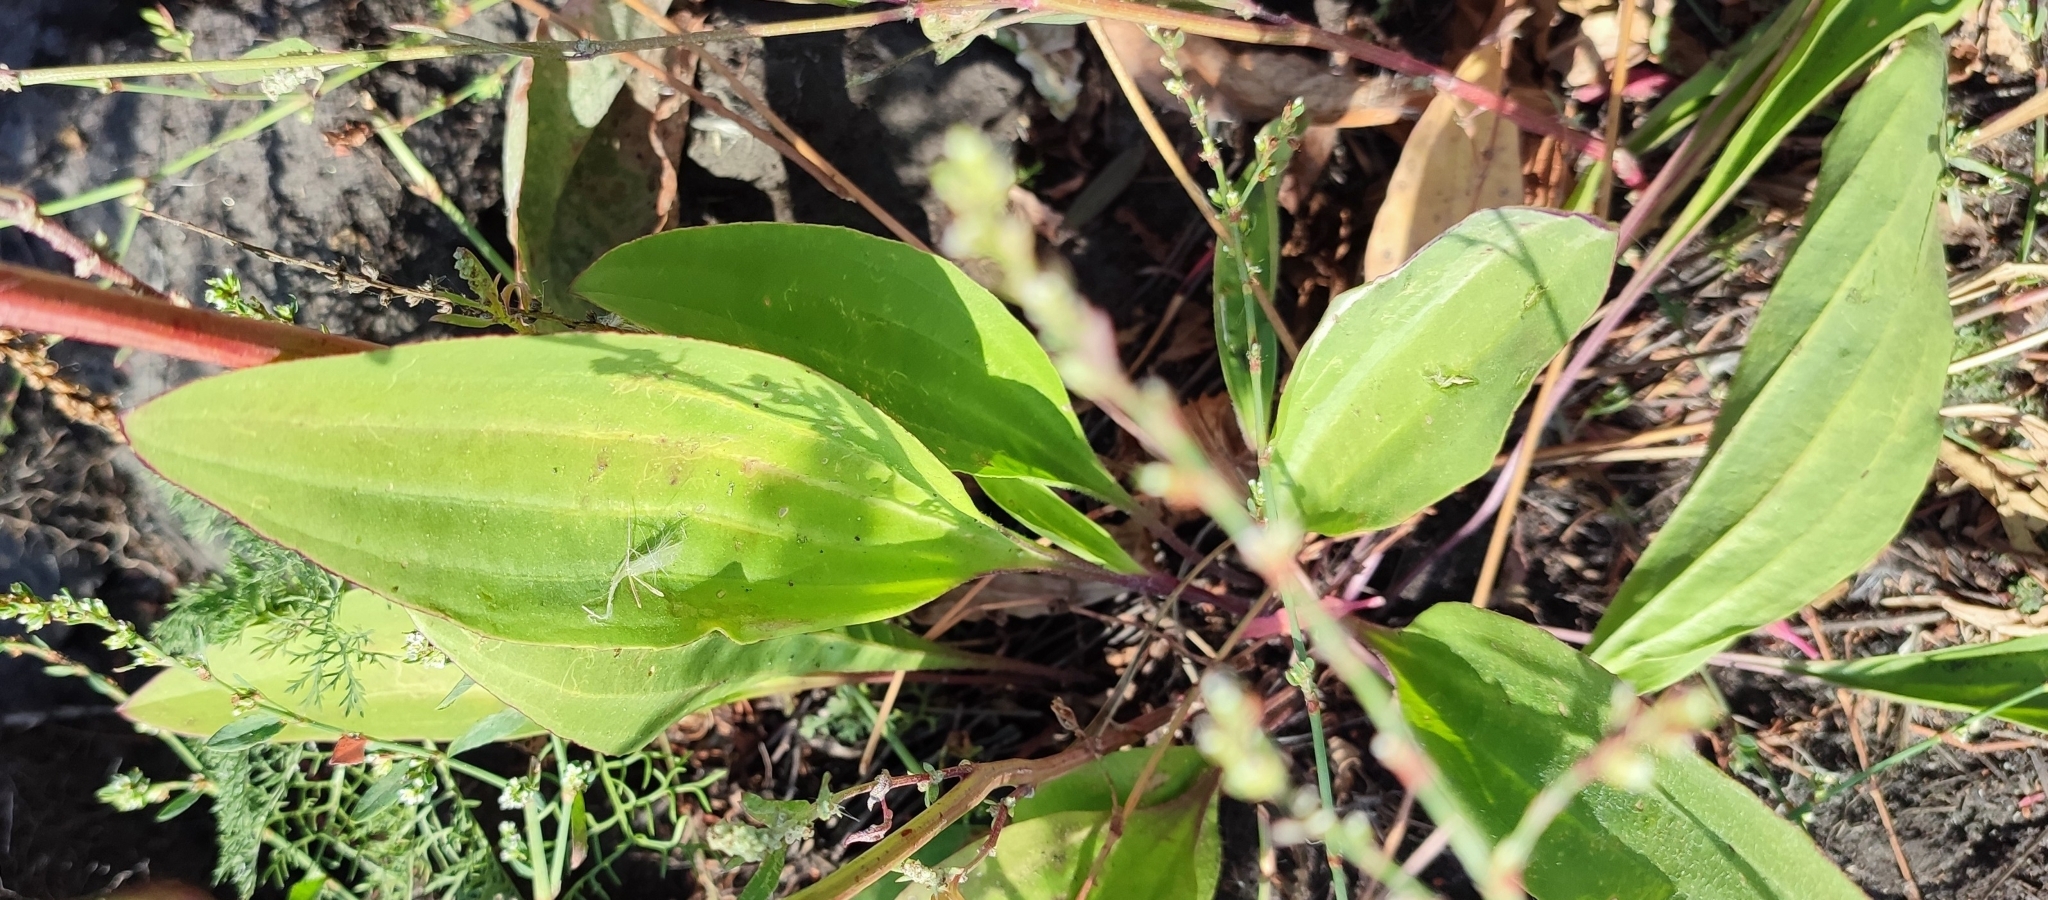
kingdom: Plantae
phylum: Tracheophyta
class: Magnoliopsida
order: Lamiales
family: Plantaginaceae
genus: Plantago
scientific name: Plantago cornuti
